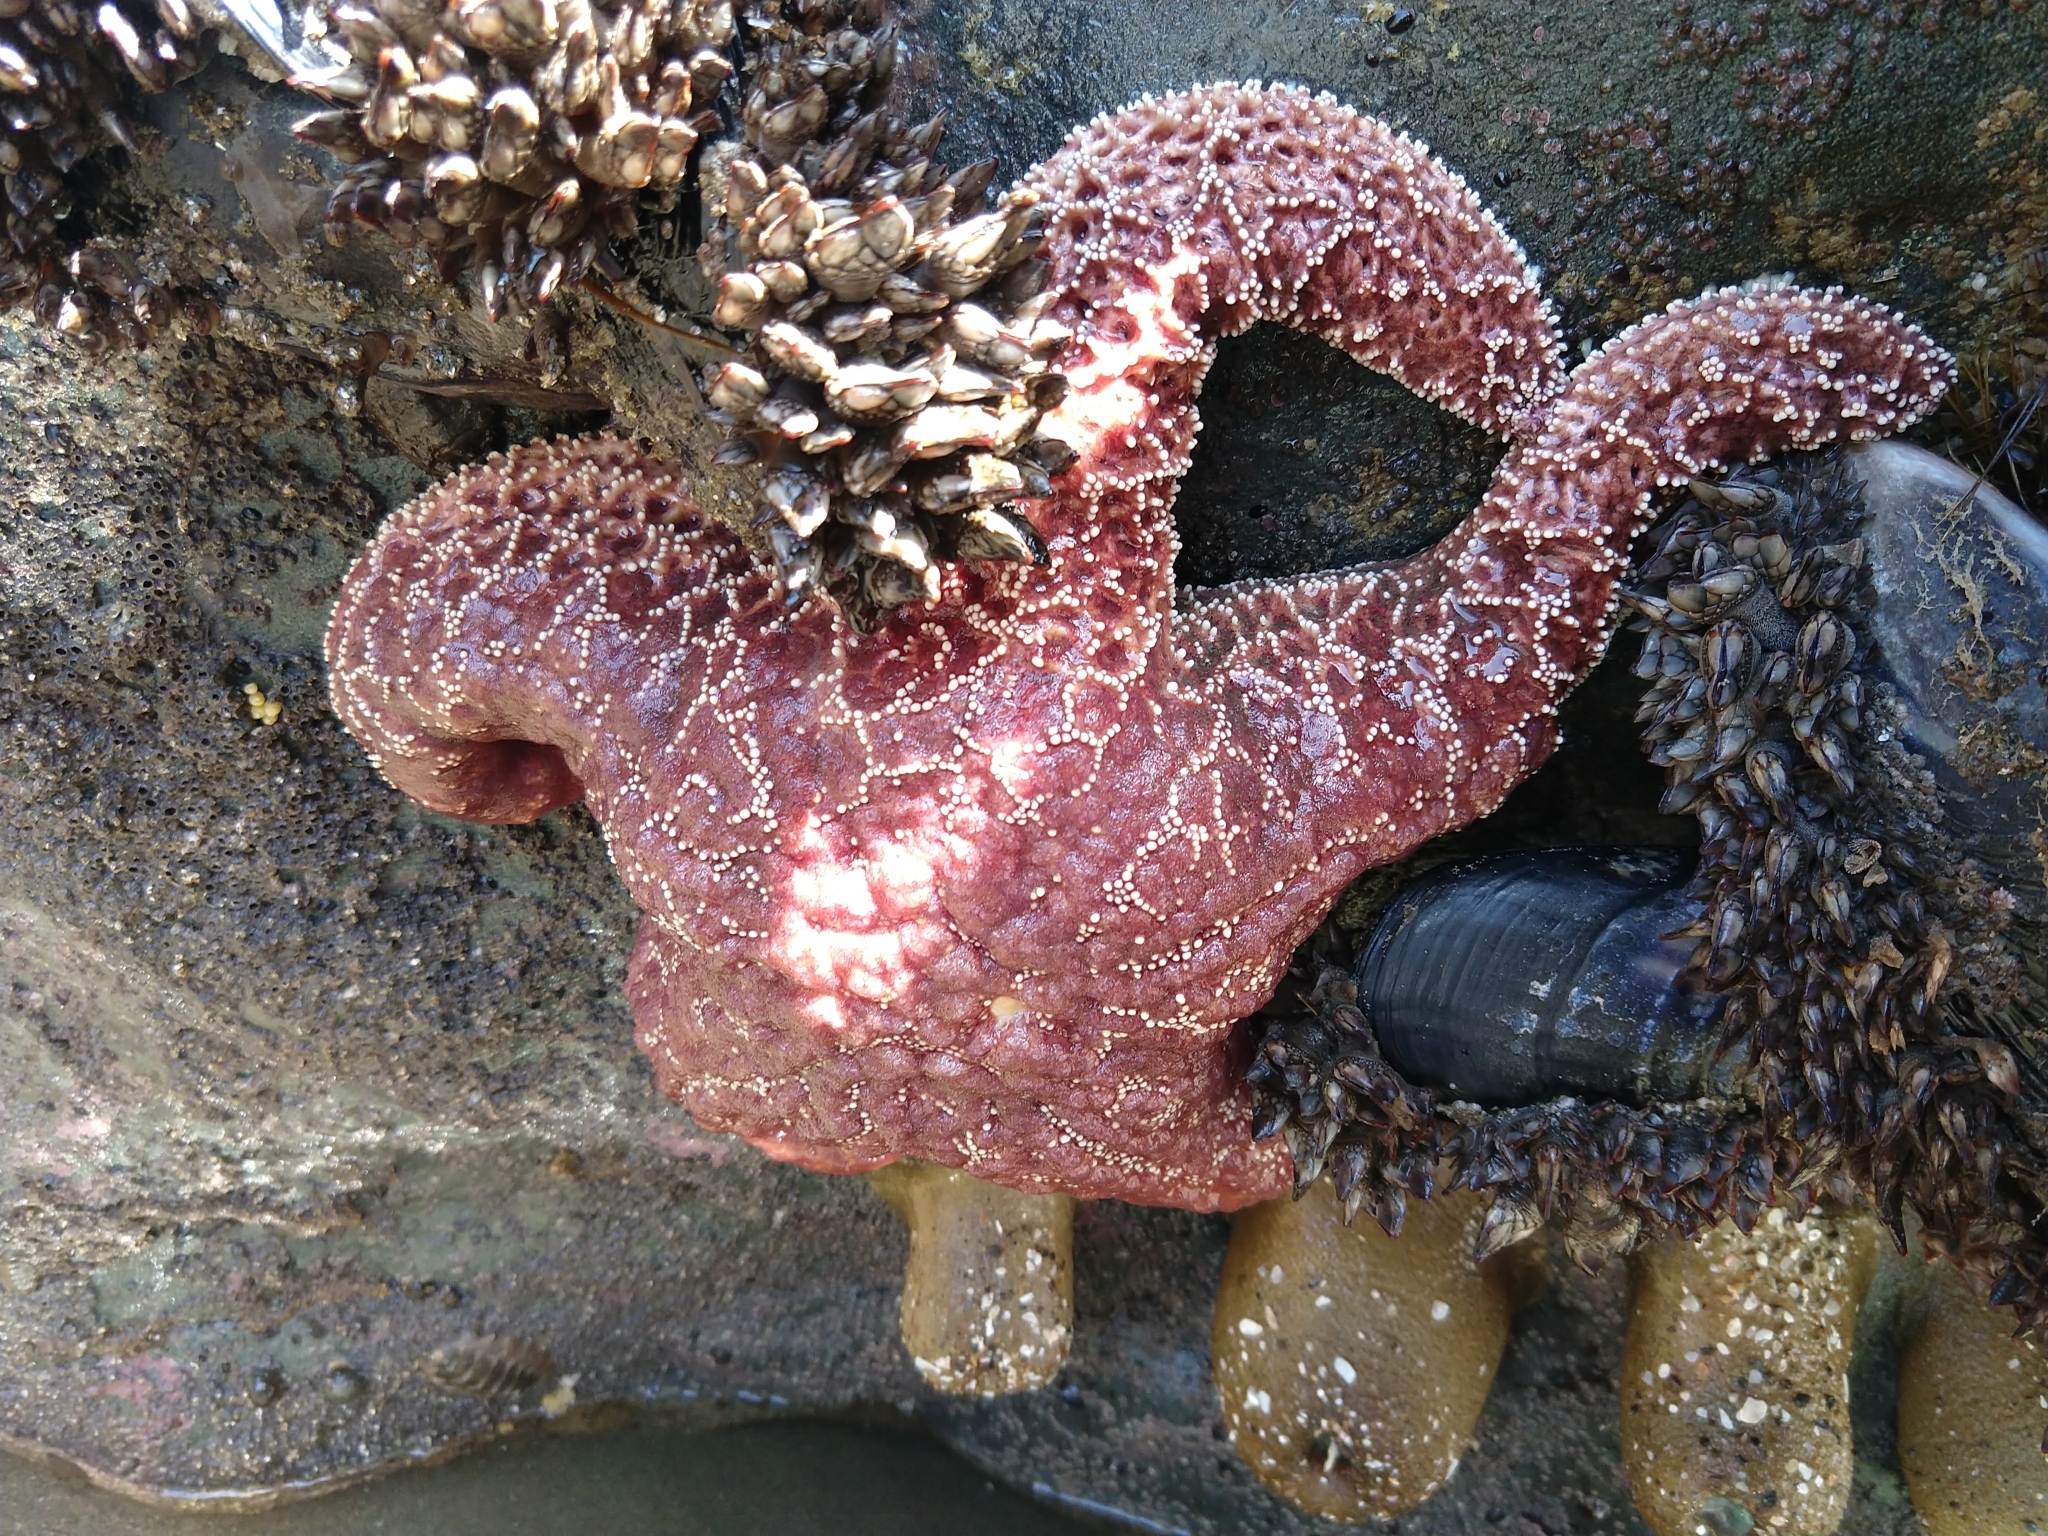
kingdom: Animalia
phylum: Echinodermata
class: Asteroidea
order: Forcipulatida
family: Asteriidae
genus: Pisaster
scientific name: Pisaster ochraceus
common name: Ochre stars
